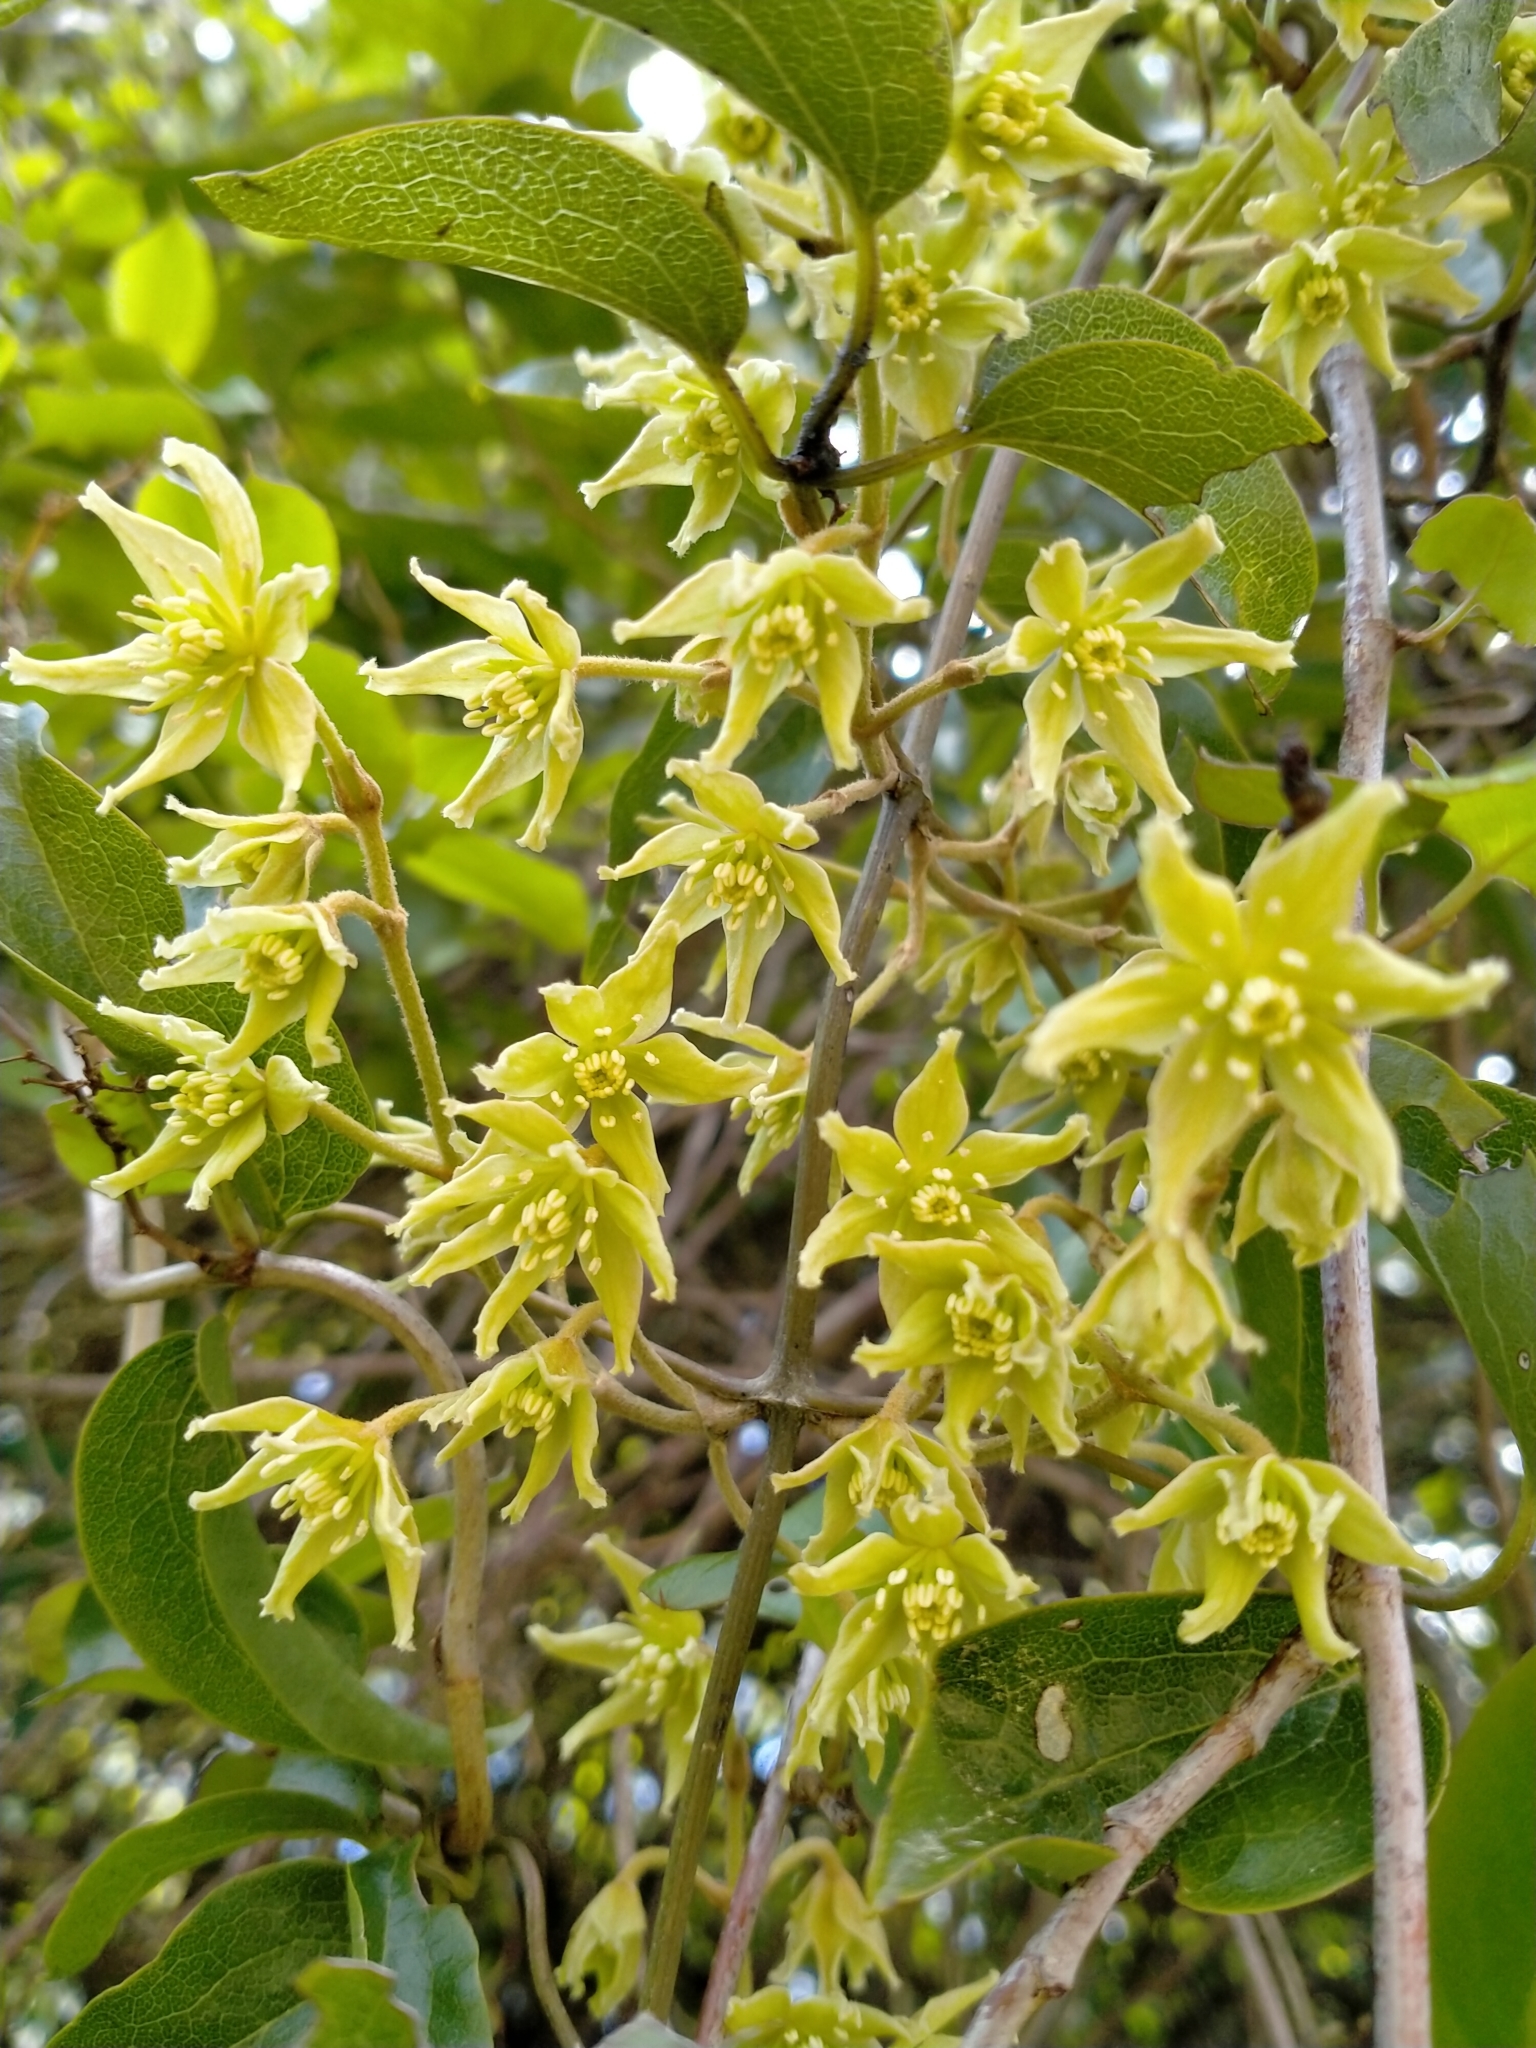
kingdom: Plantae
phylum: Tracheophyta
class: Magnoliopsida
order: Ranunculales
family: Ranunculaceae
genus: Clematis
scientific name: Clematis foetida
